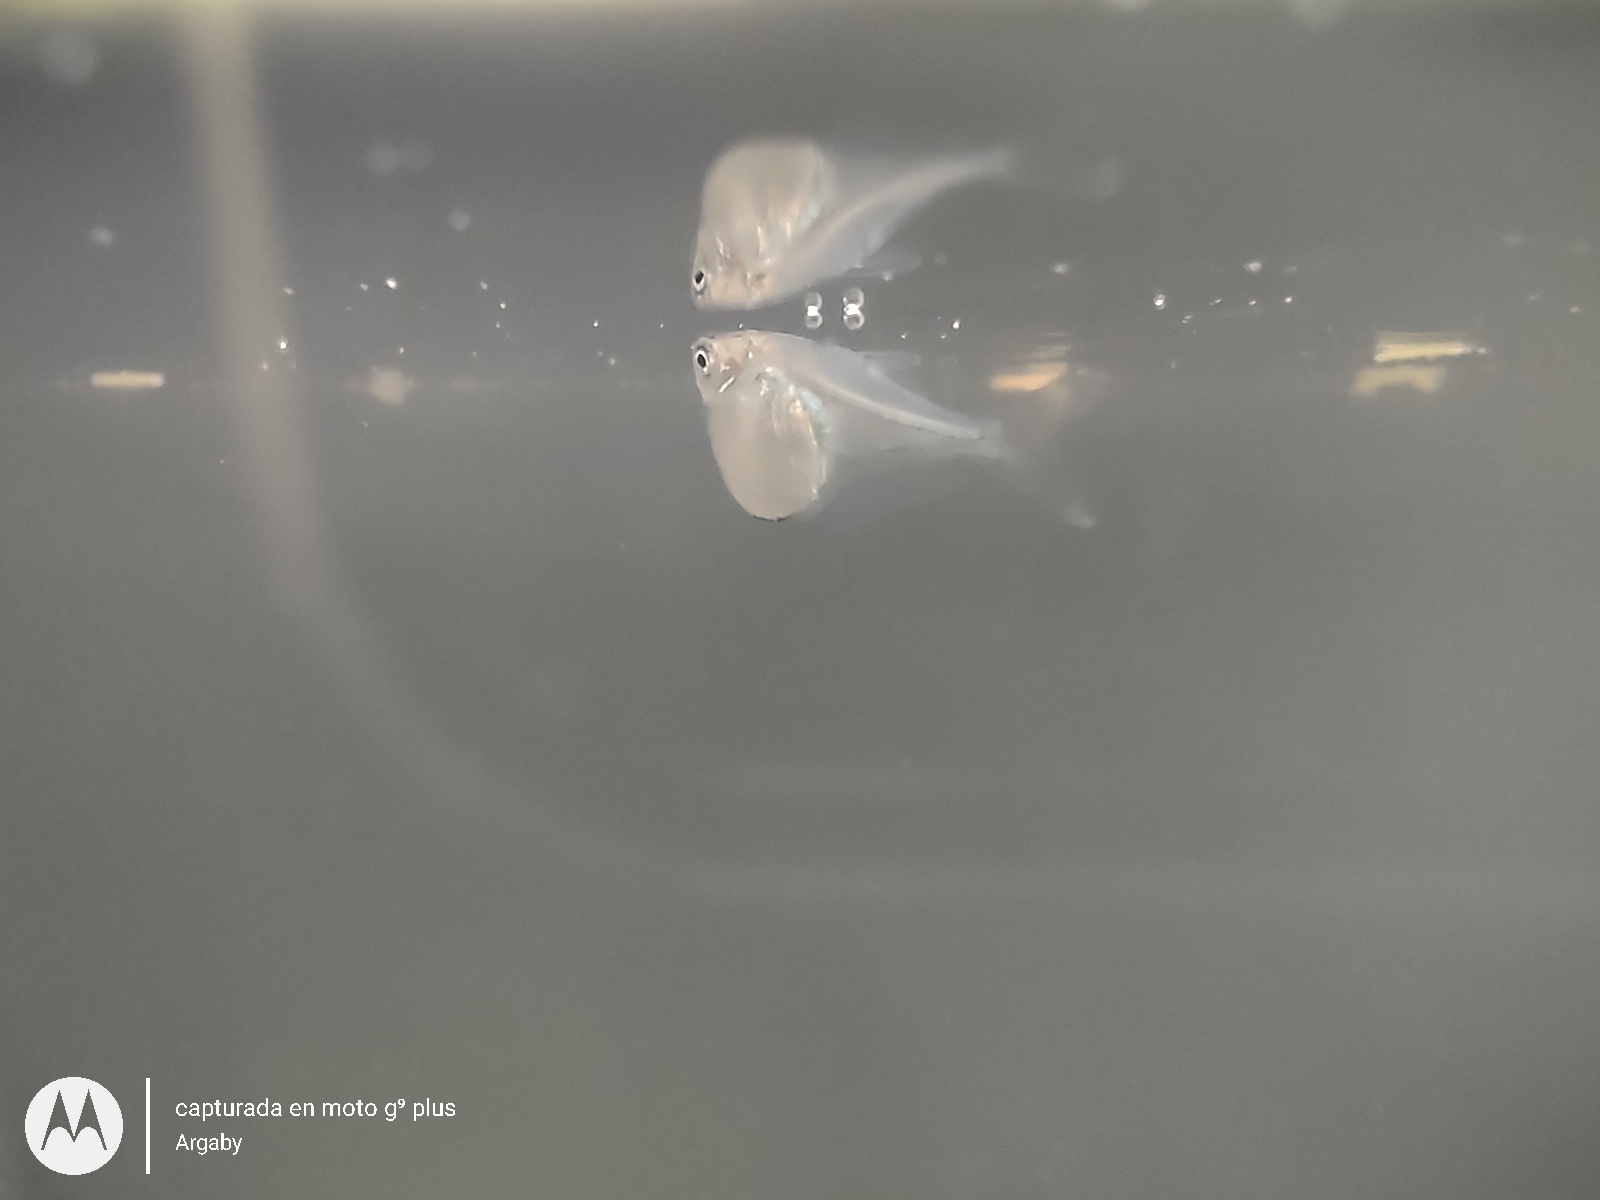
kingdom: Animalia
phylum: Chordata
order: Characiformes
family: Gasteropelecidae
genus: Thoracocharax
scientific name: Thoracocharax stellatus
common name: Hatchet tetra
